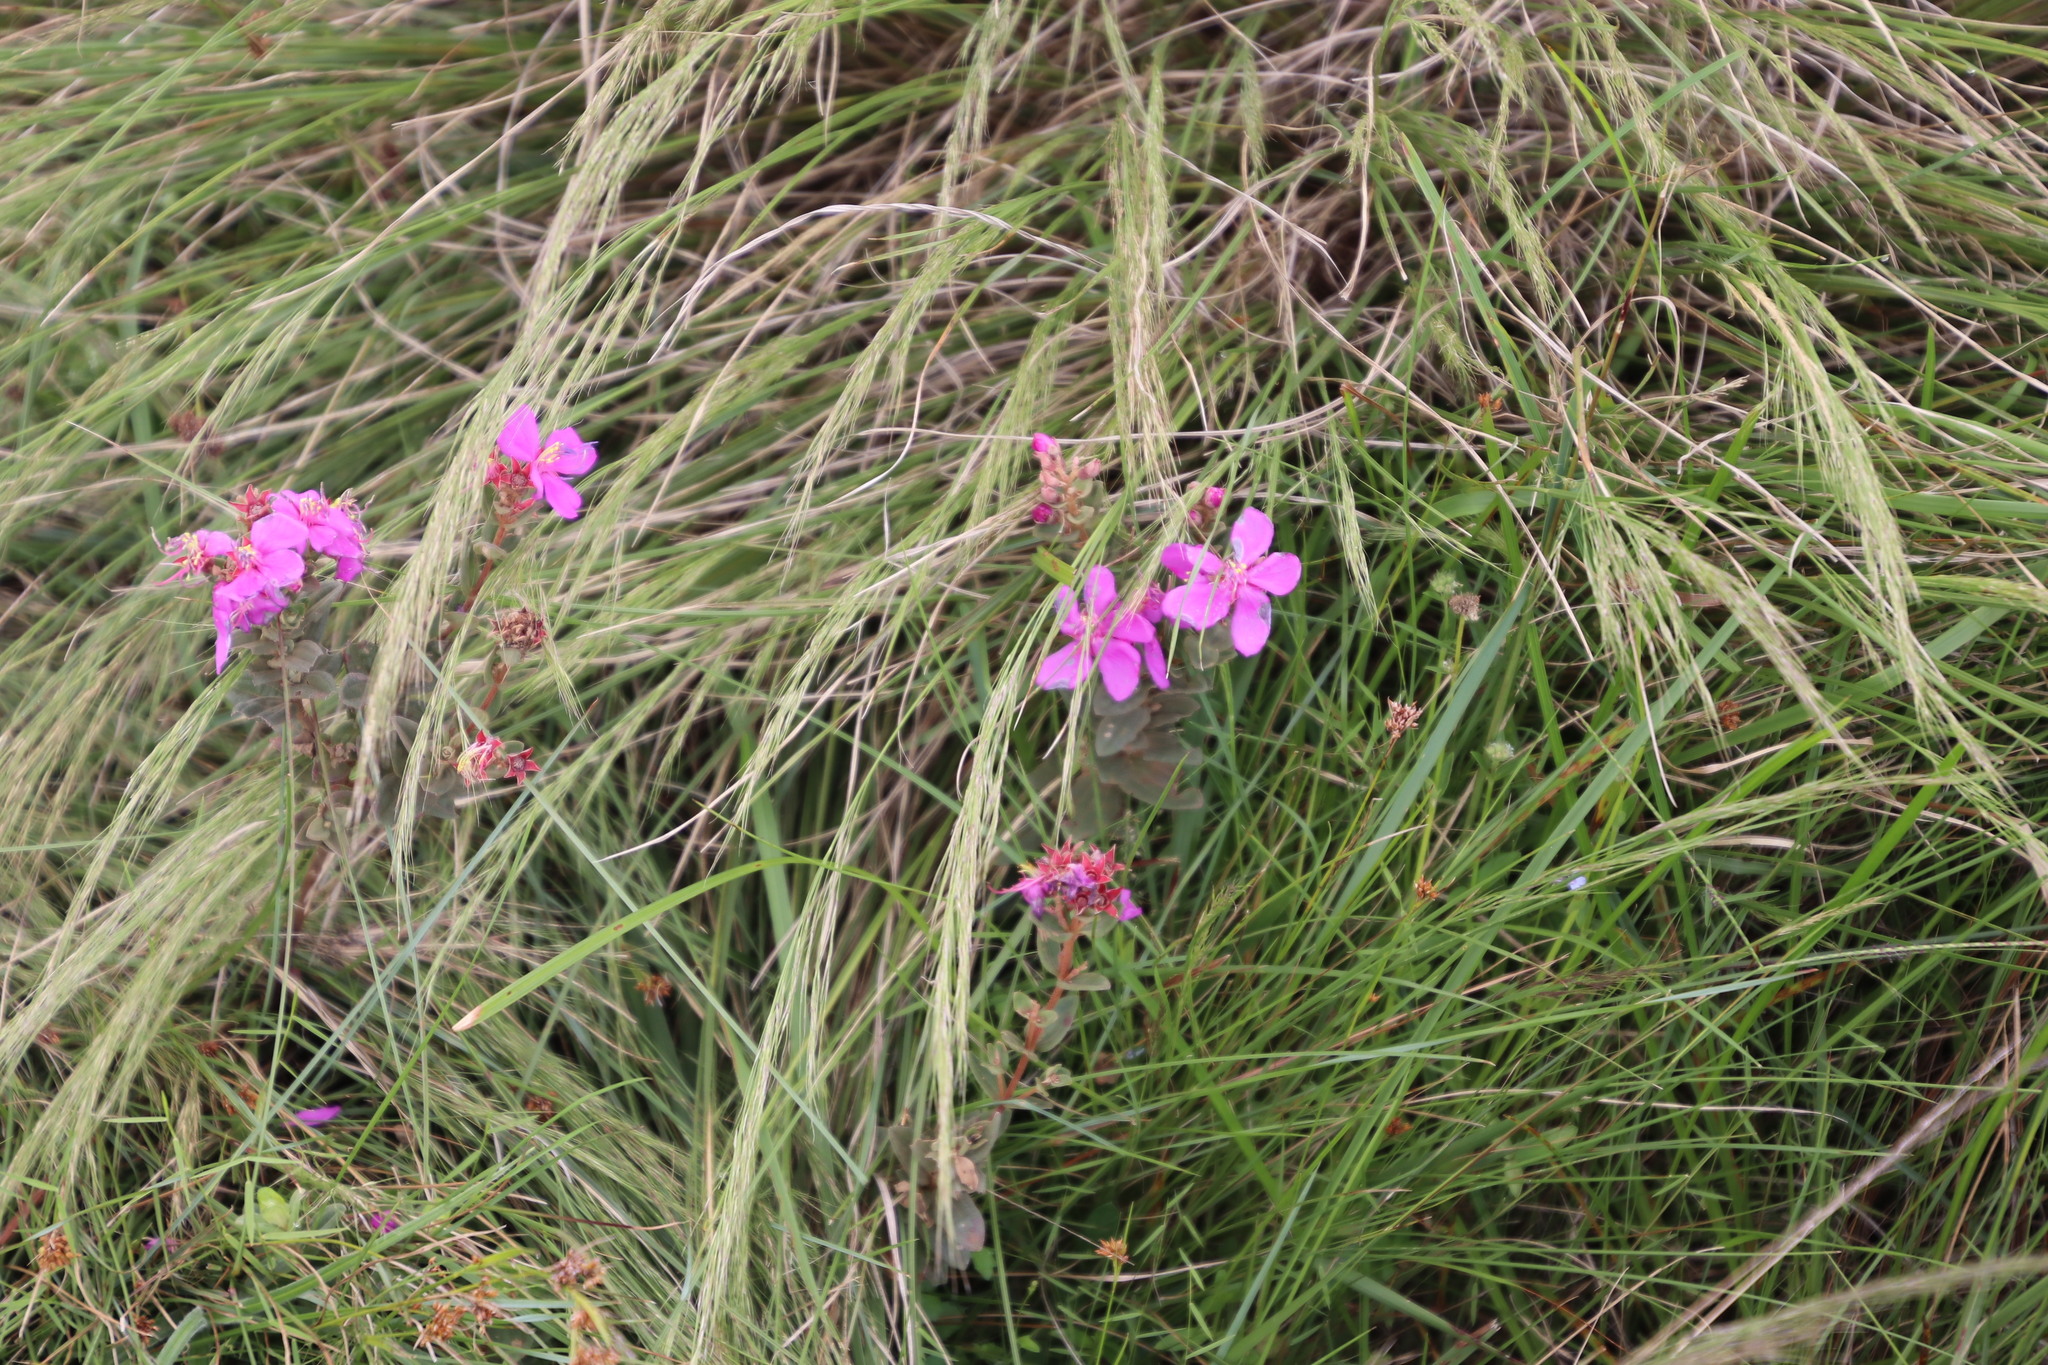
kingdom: Plantae
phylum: Tracheophyta
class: Magnoliopsida
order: Myrtales
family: Melastomataceae
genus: Argyrella
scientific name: Argyrella canescens
